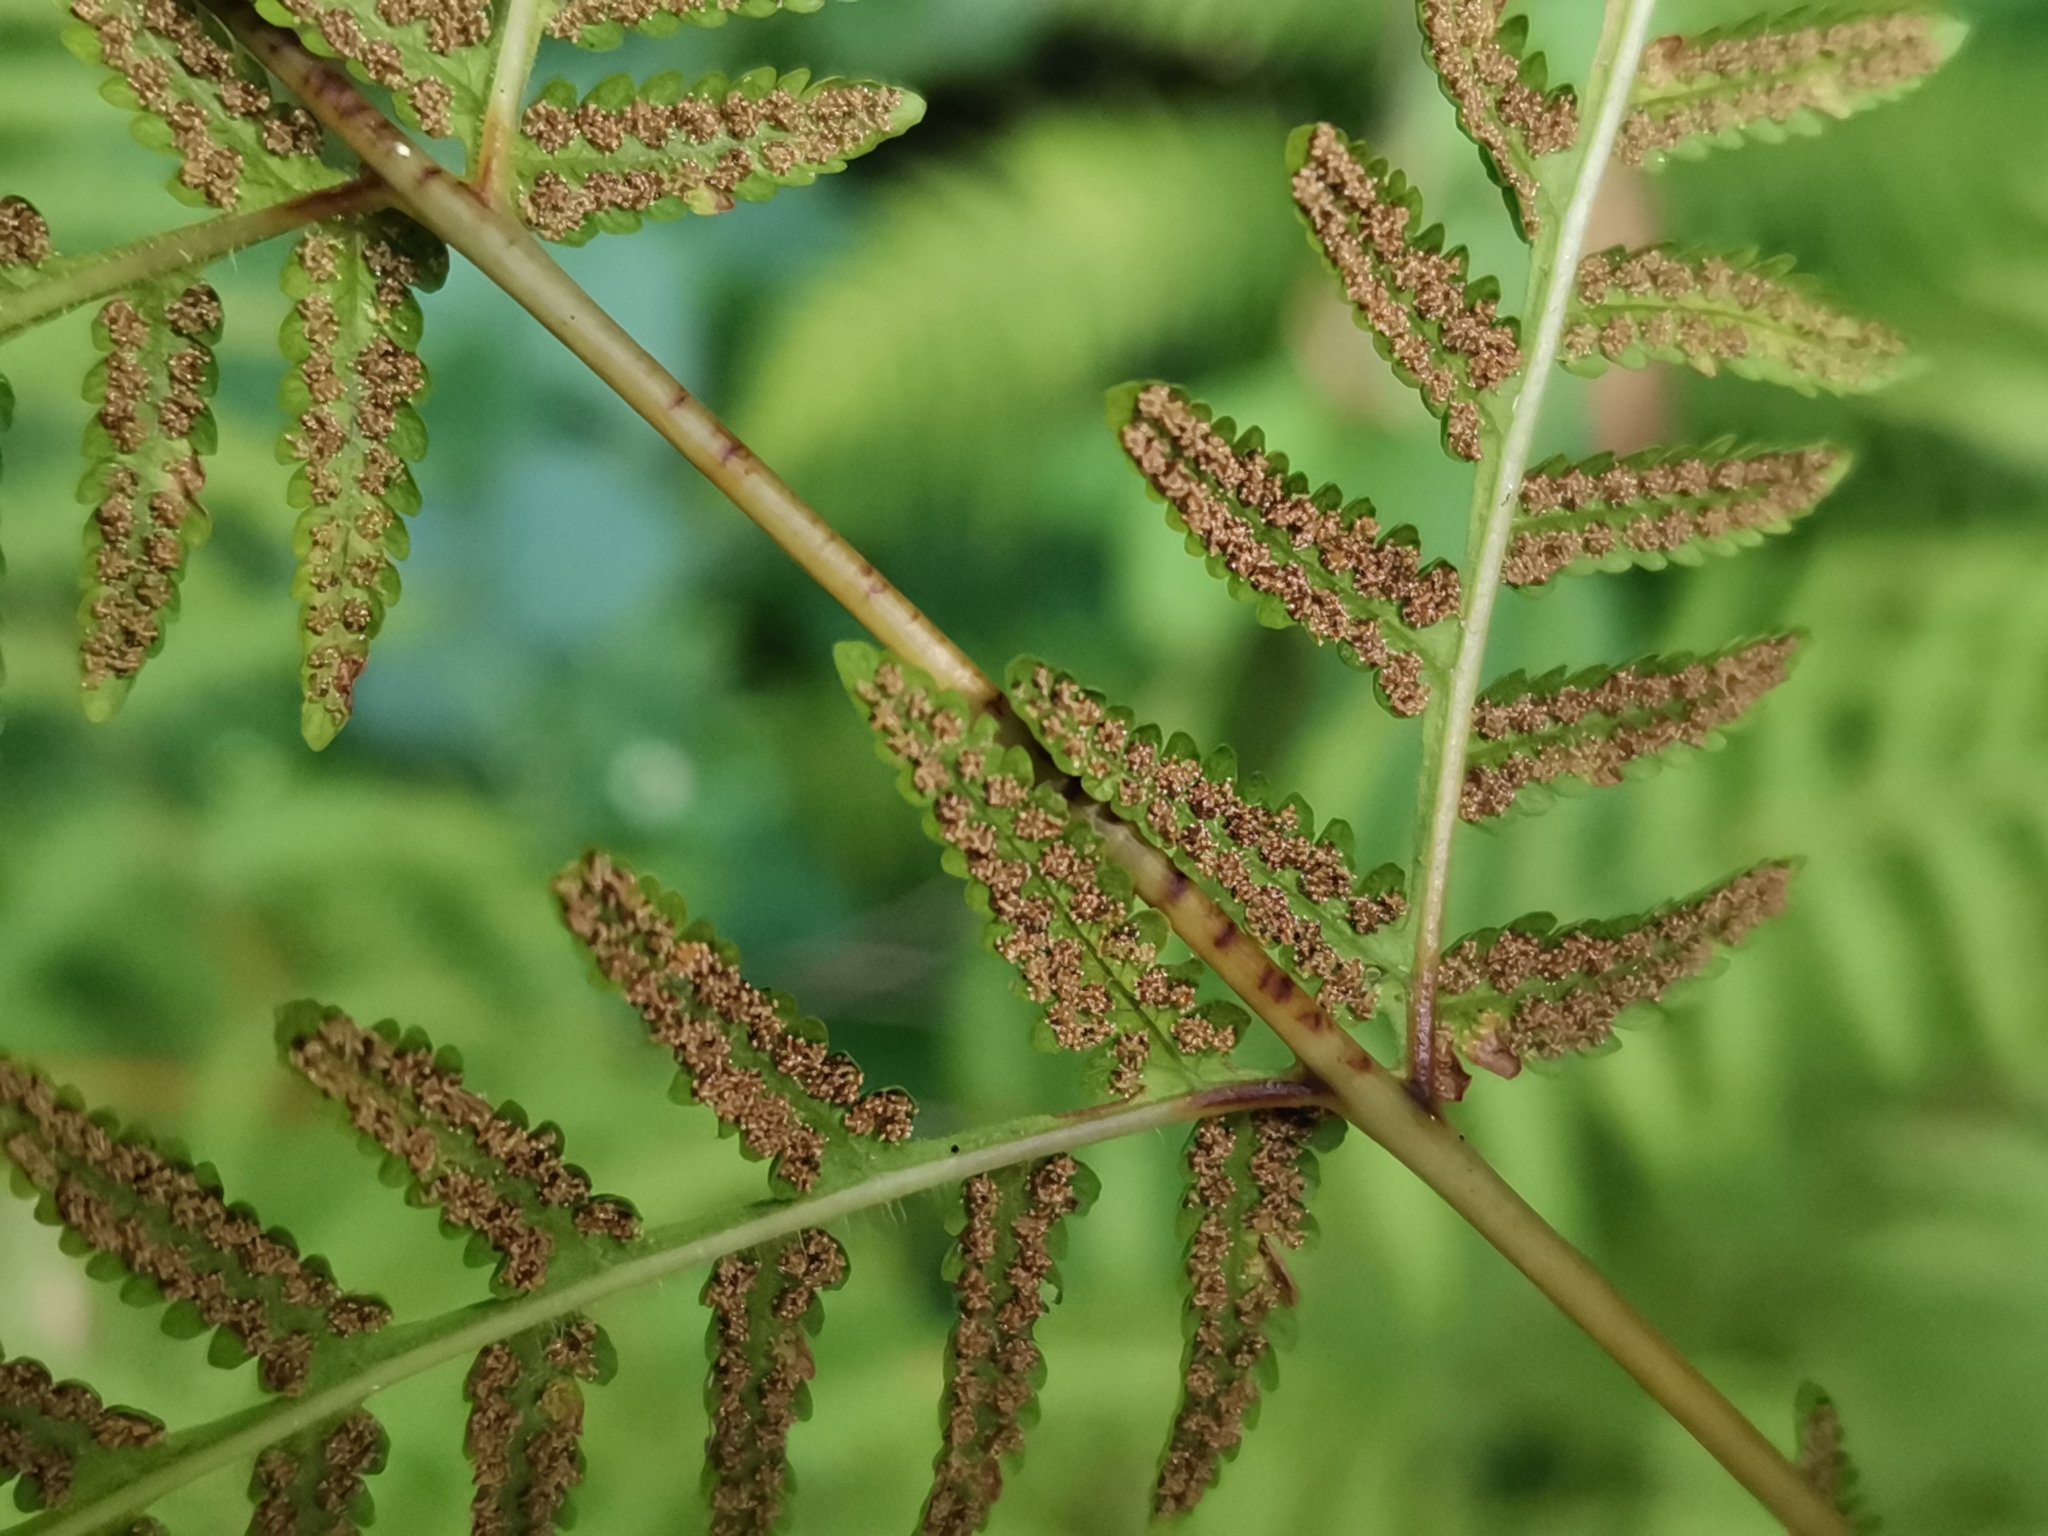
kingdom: Plantae
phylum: Tracheophyta
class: Polypodiopsida
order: Polypodiales
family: Thelypteridaceae
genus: Macrothelypteris
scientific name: Macrothelypteris torresiana
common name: Swordfern
